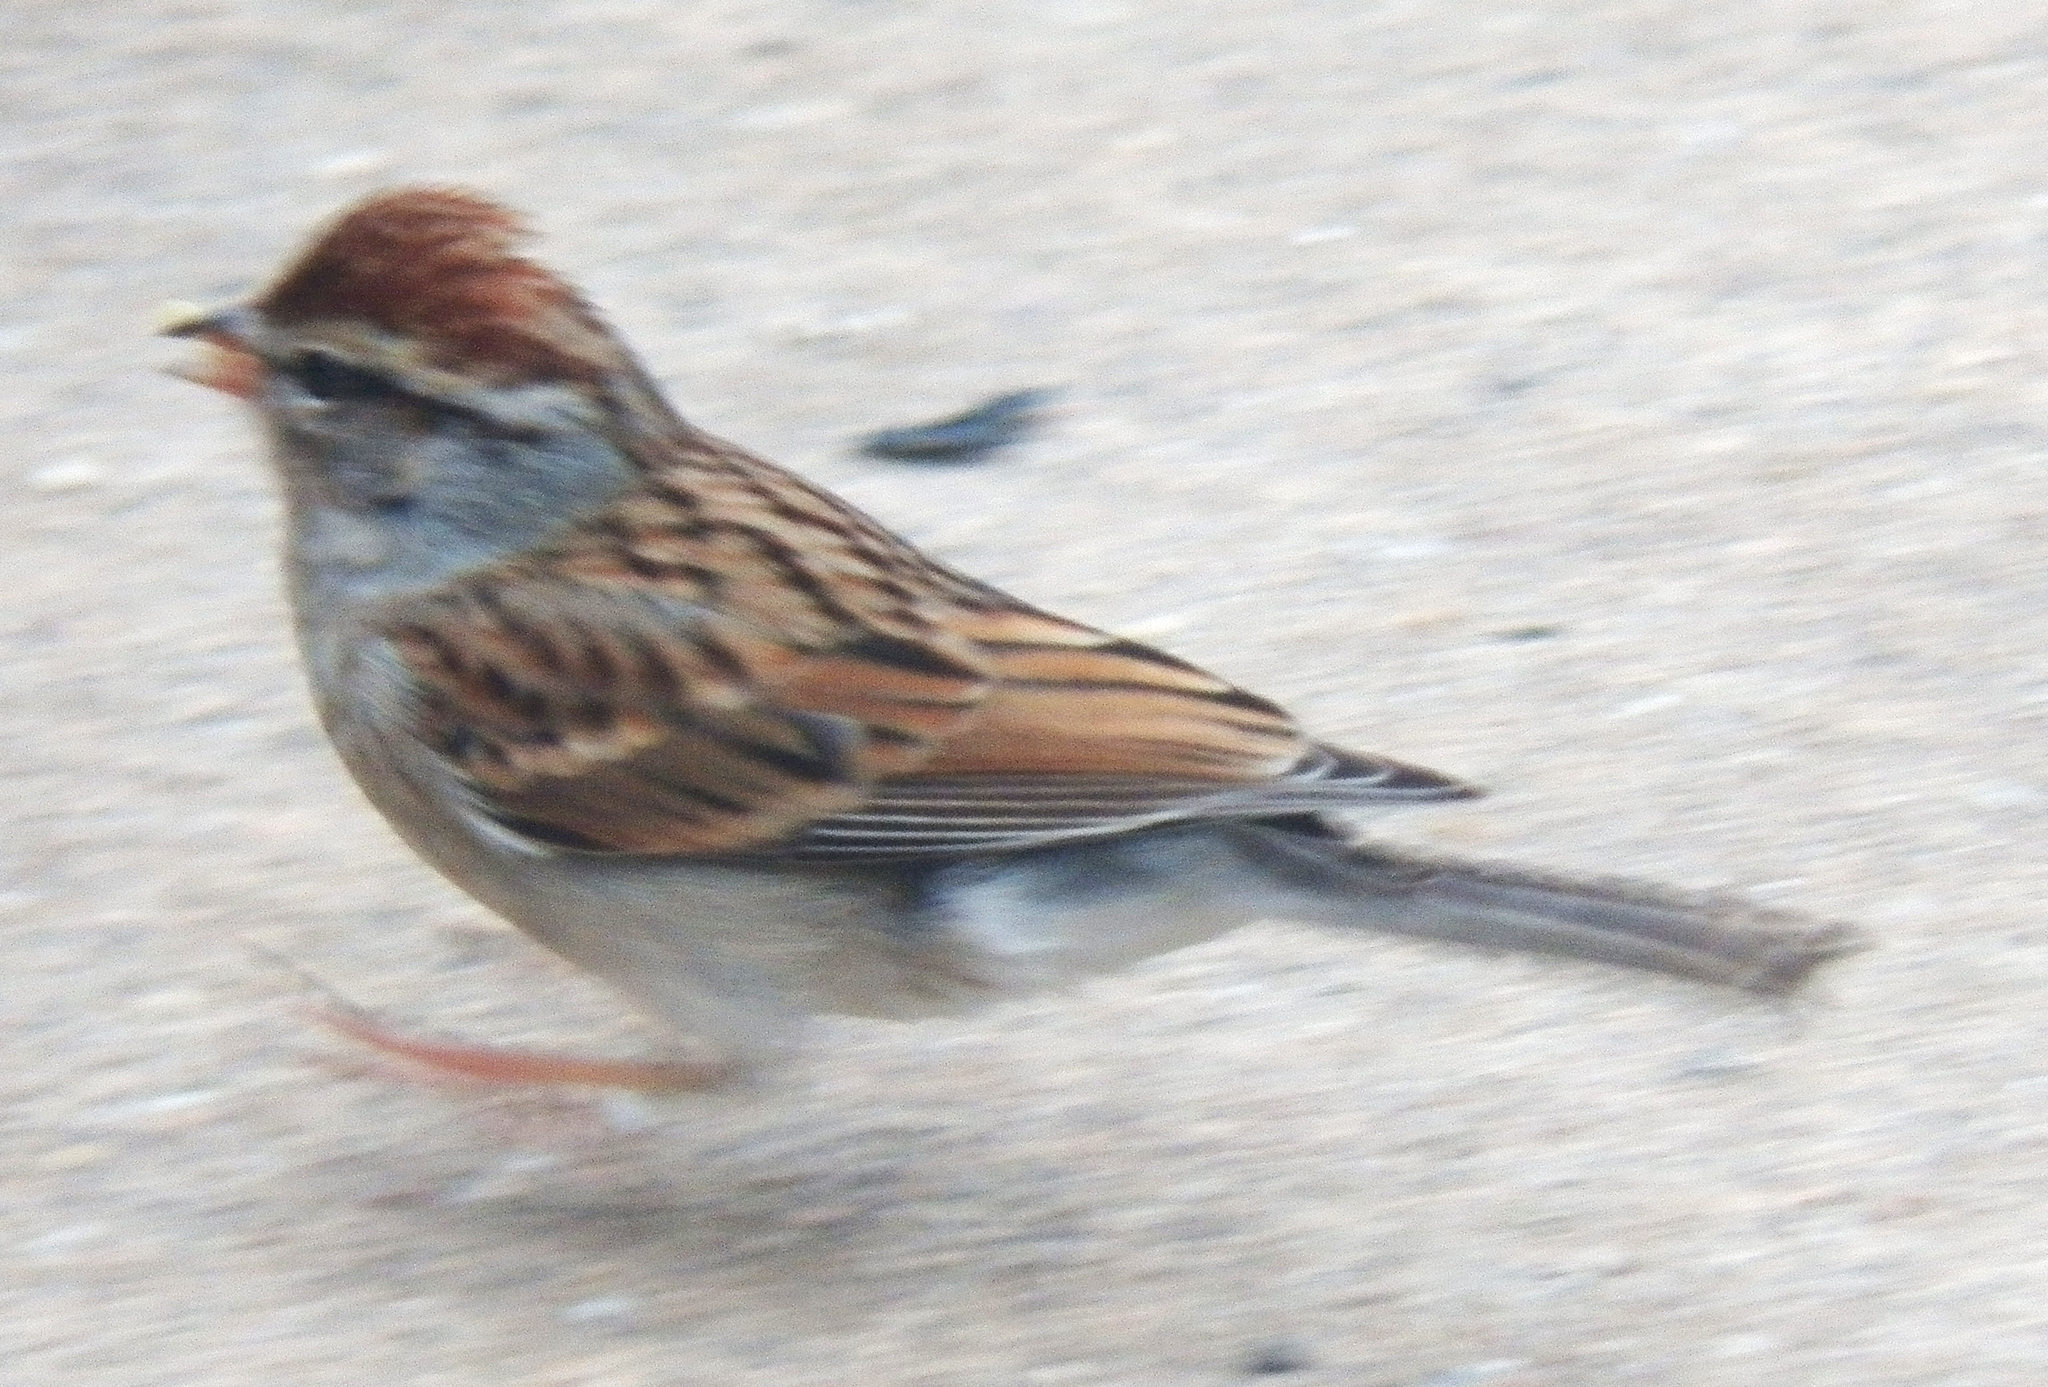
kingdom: Animalia
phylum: Chordata
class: Aves
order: Passeriformes
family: Passerellidae
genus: Spizella
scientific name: Spizella passerina
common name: Chipping sparrow
